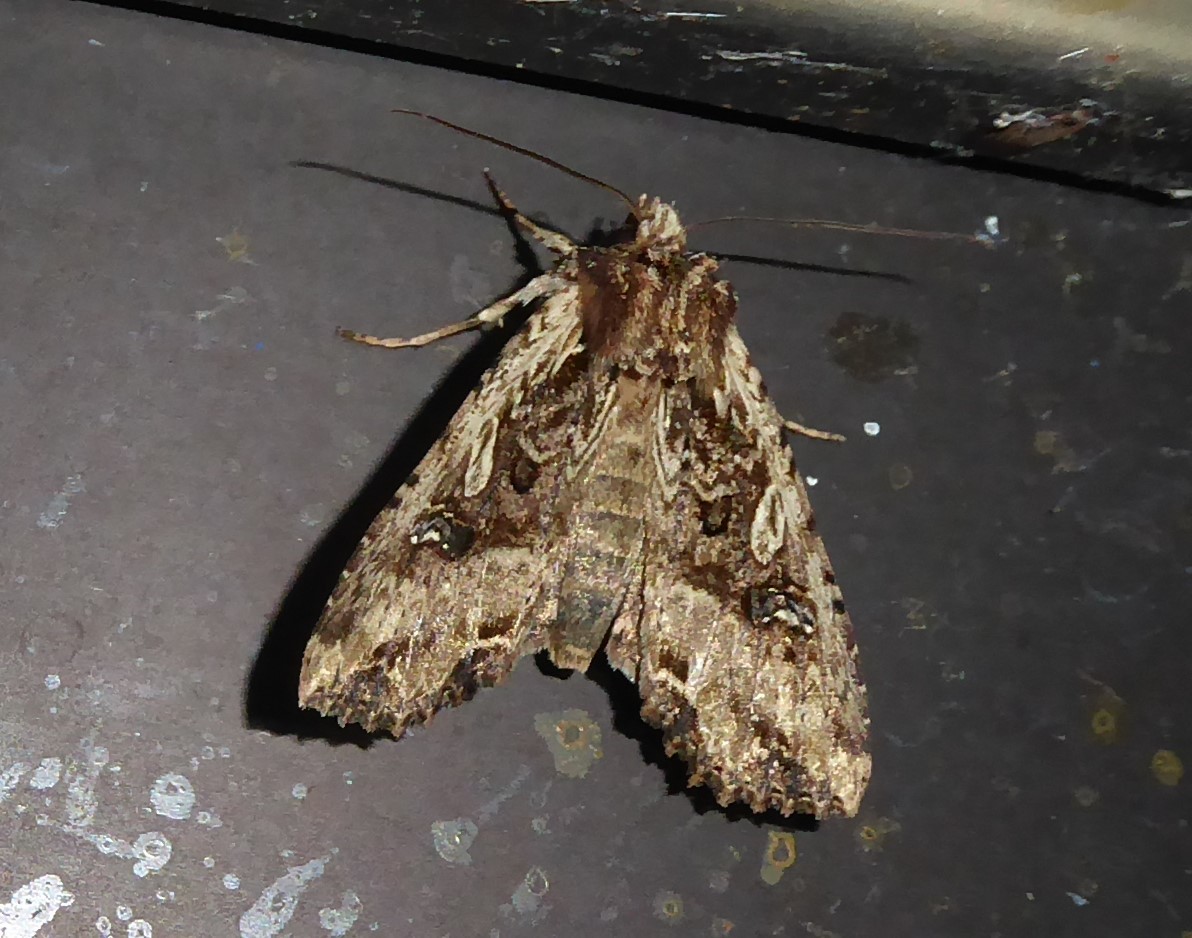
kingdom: Animalia
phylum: Arthropoda
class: Insecta
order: Lepidoptera
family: Noctuidae
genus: Meterana
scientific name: Meterana stipata
